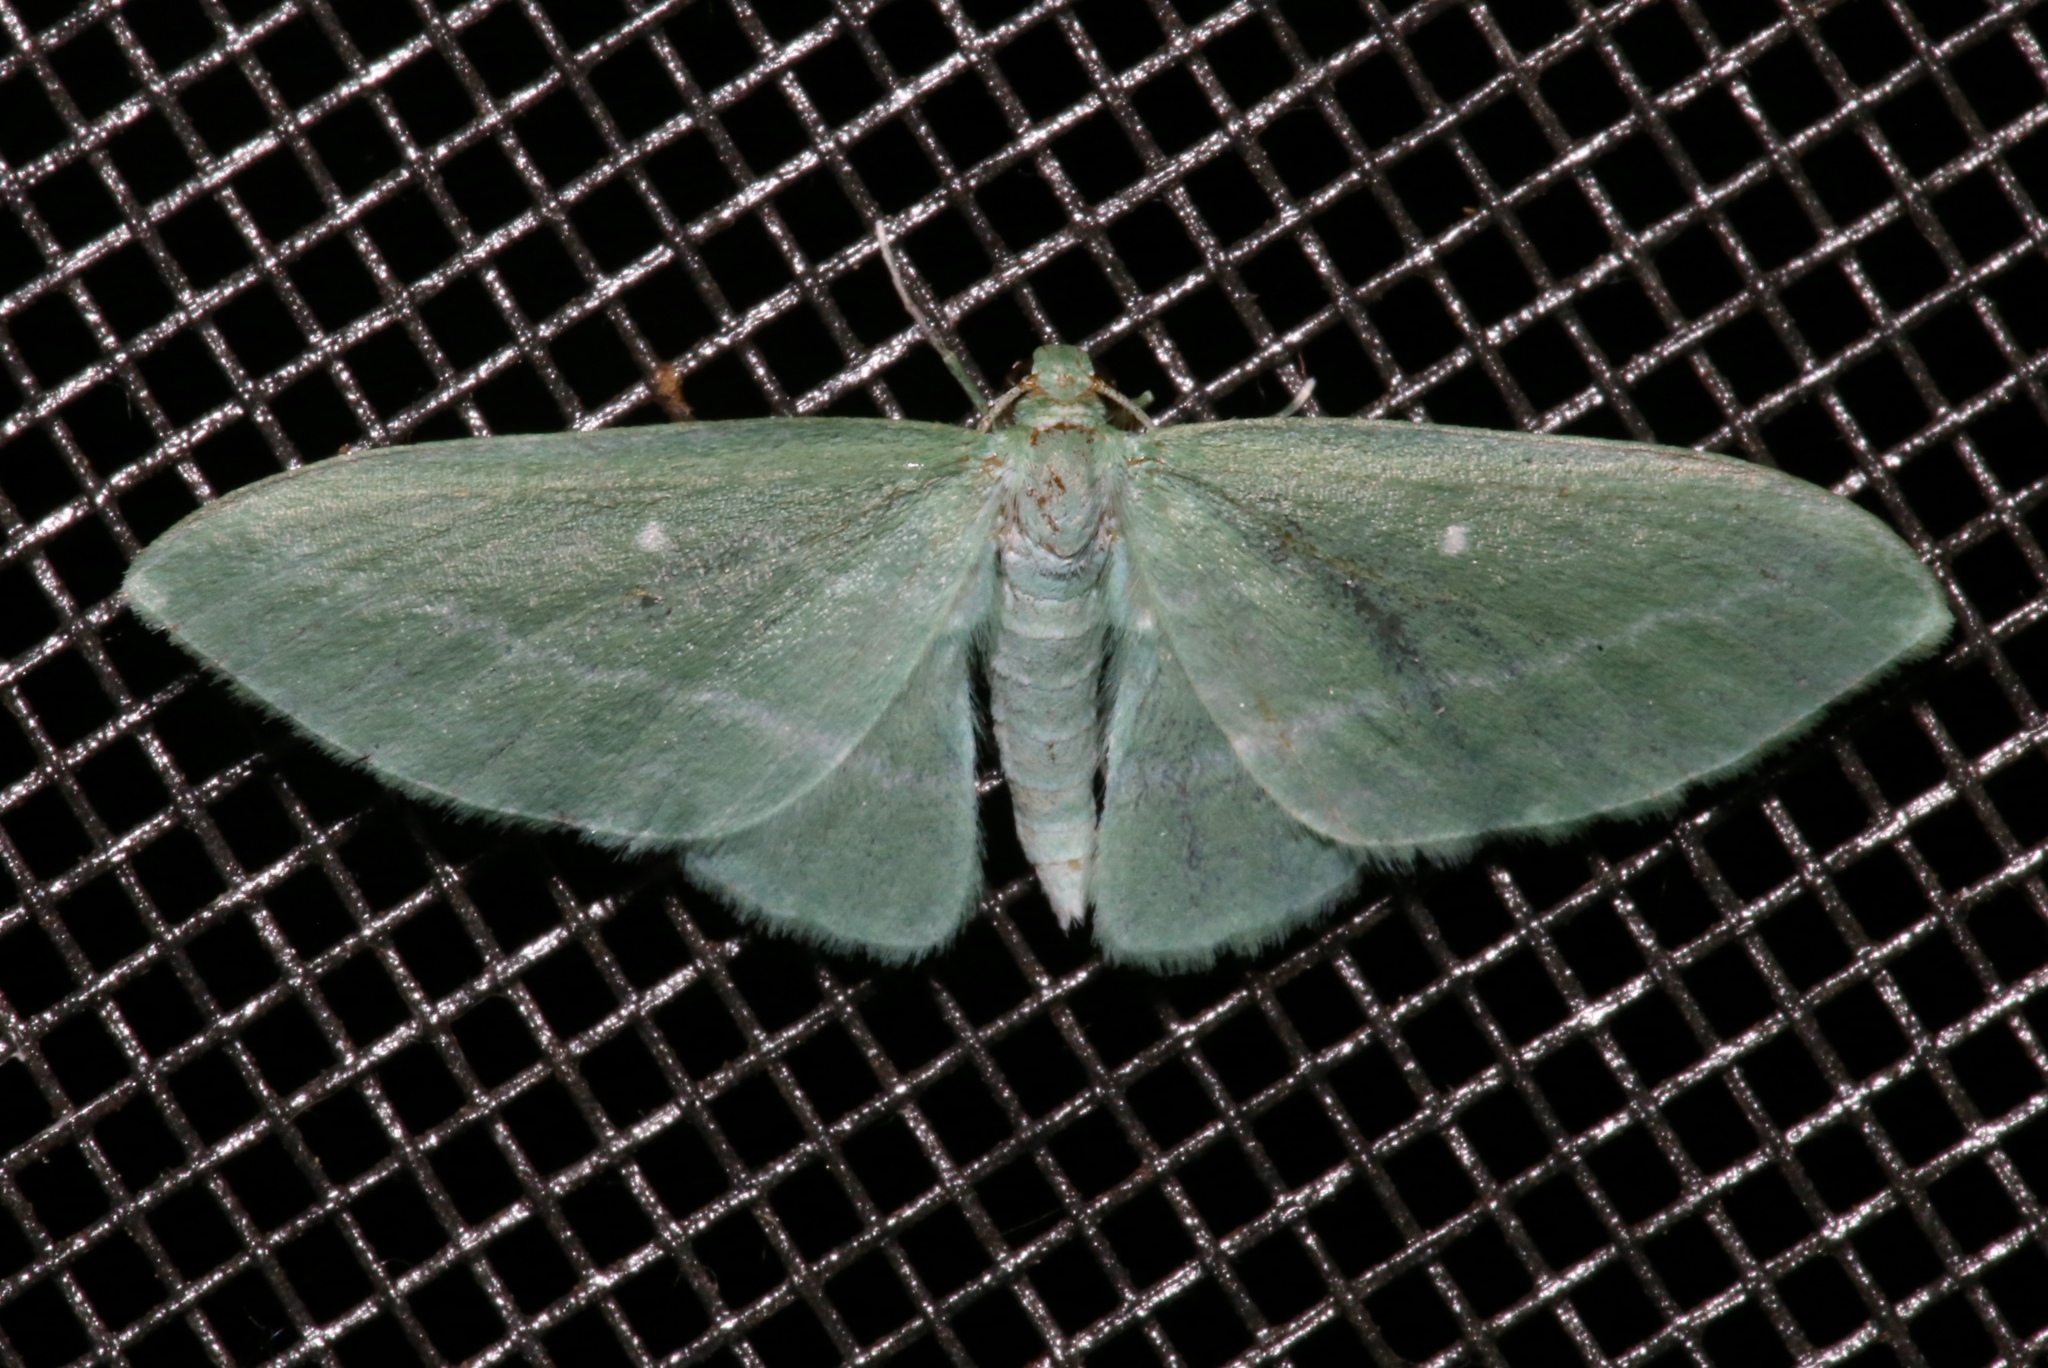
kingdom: Animalia
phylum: Arthropoda
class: Insecta
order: Lepidoptera
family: Geometridae
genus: Dyspteris
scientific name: Dyspteris abortivaria
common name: Bad-wing
